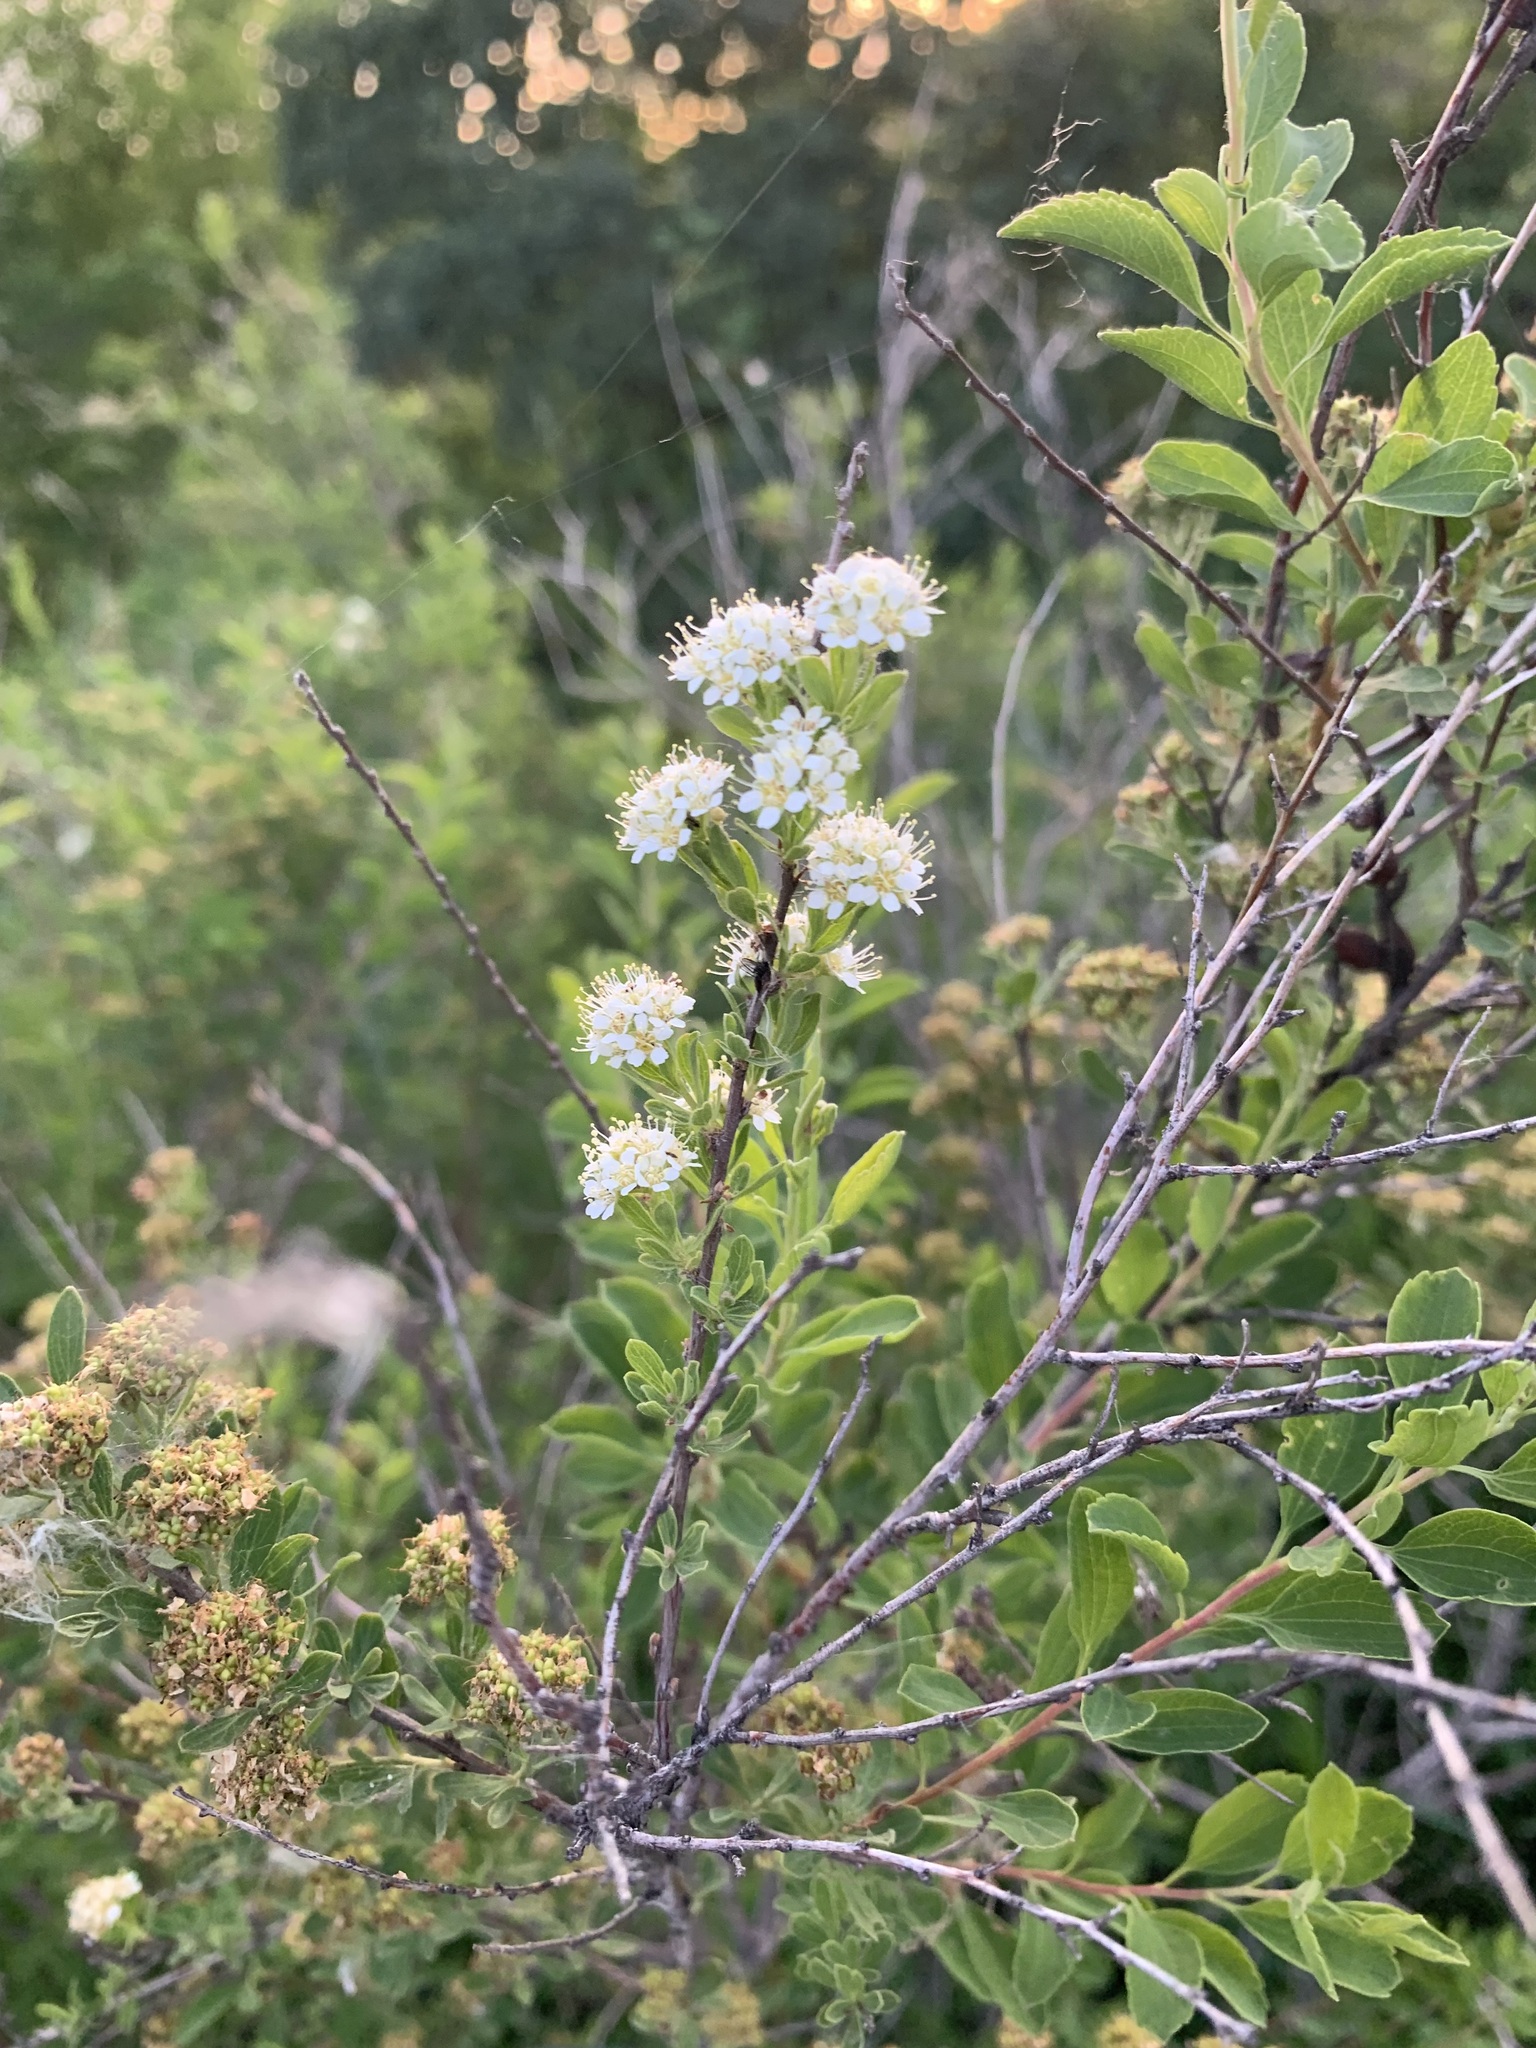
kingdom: Plantae
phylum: Tracheophyta
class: Magnoliopsida
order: Rosales
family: Rosaceae
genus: Spiraea
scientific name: Spiraea crenata
